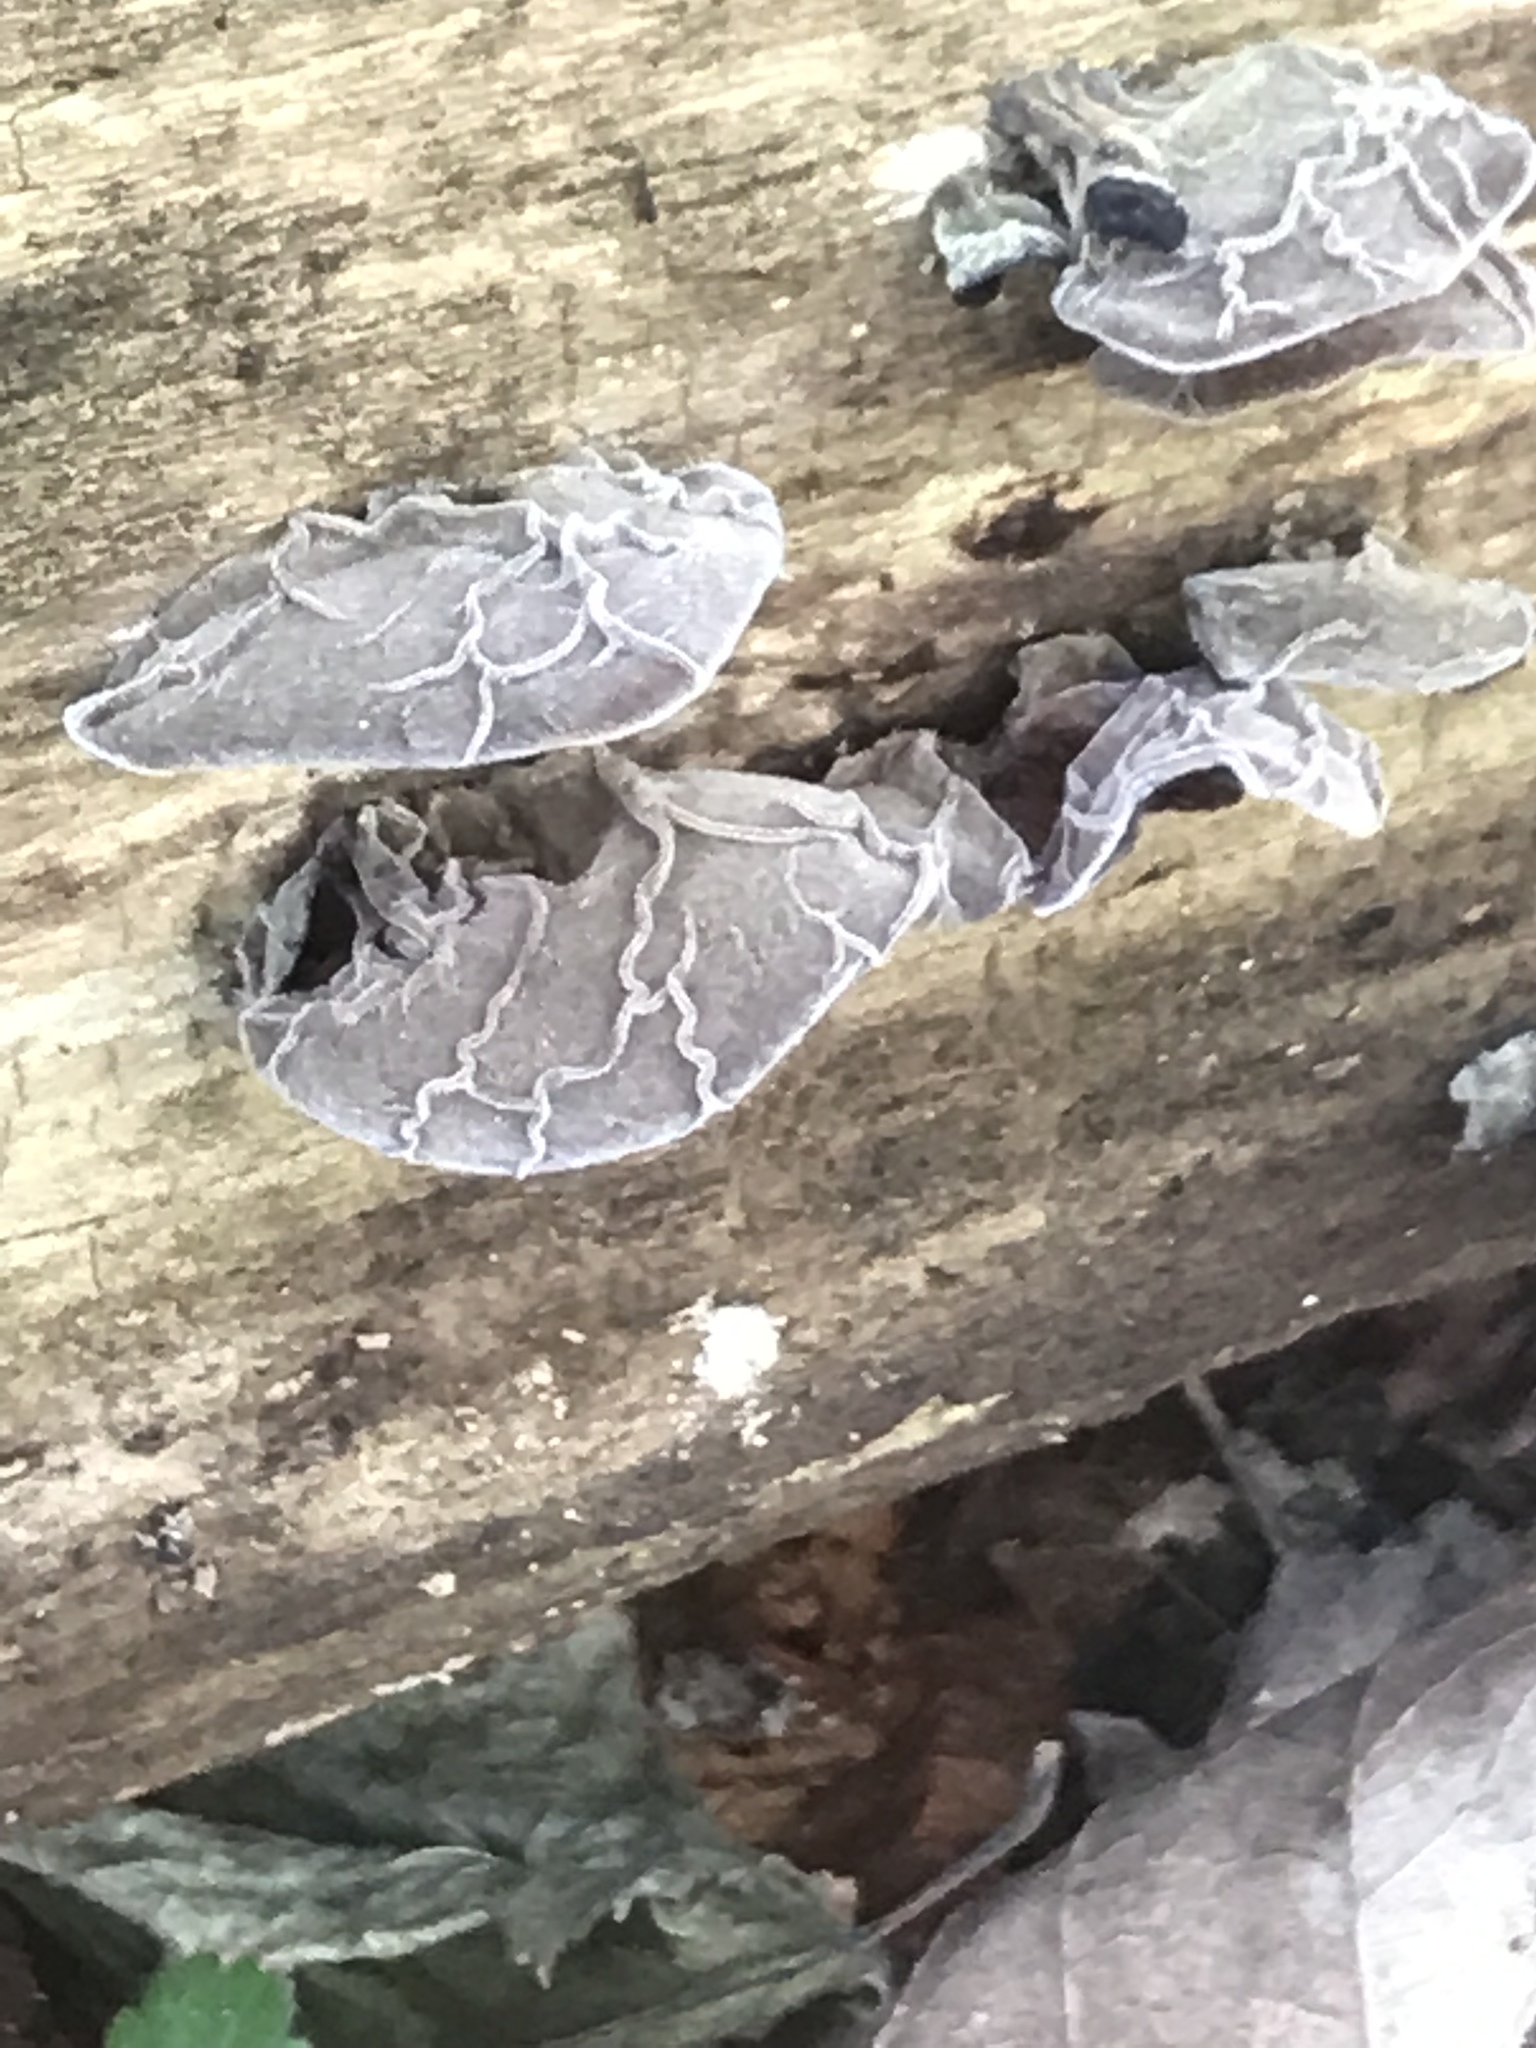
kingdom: Fungi
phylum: Basidiomycota
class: Agaricomycetes
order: Auriculariales
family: Auriculariaceae
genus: Auricularia
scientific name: Auricularia auricula-judae
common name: Jelly ear
